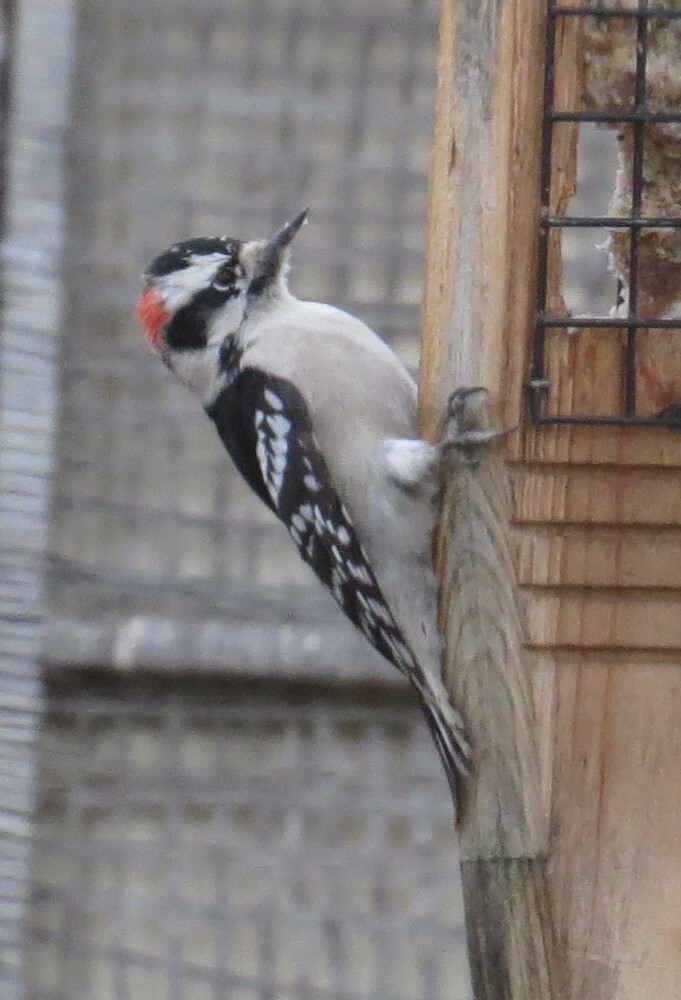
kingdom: Animalia
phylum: Chordata
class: Aves
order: Piciformes
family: Picidae
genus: Dryobates
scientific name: Dryobates pubescens
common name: Downy woodpecker
